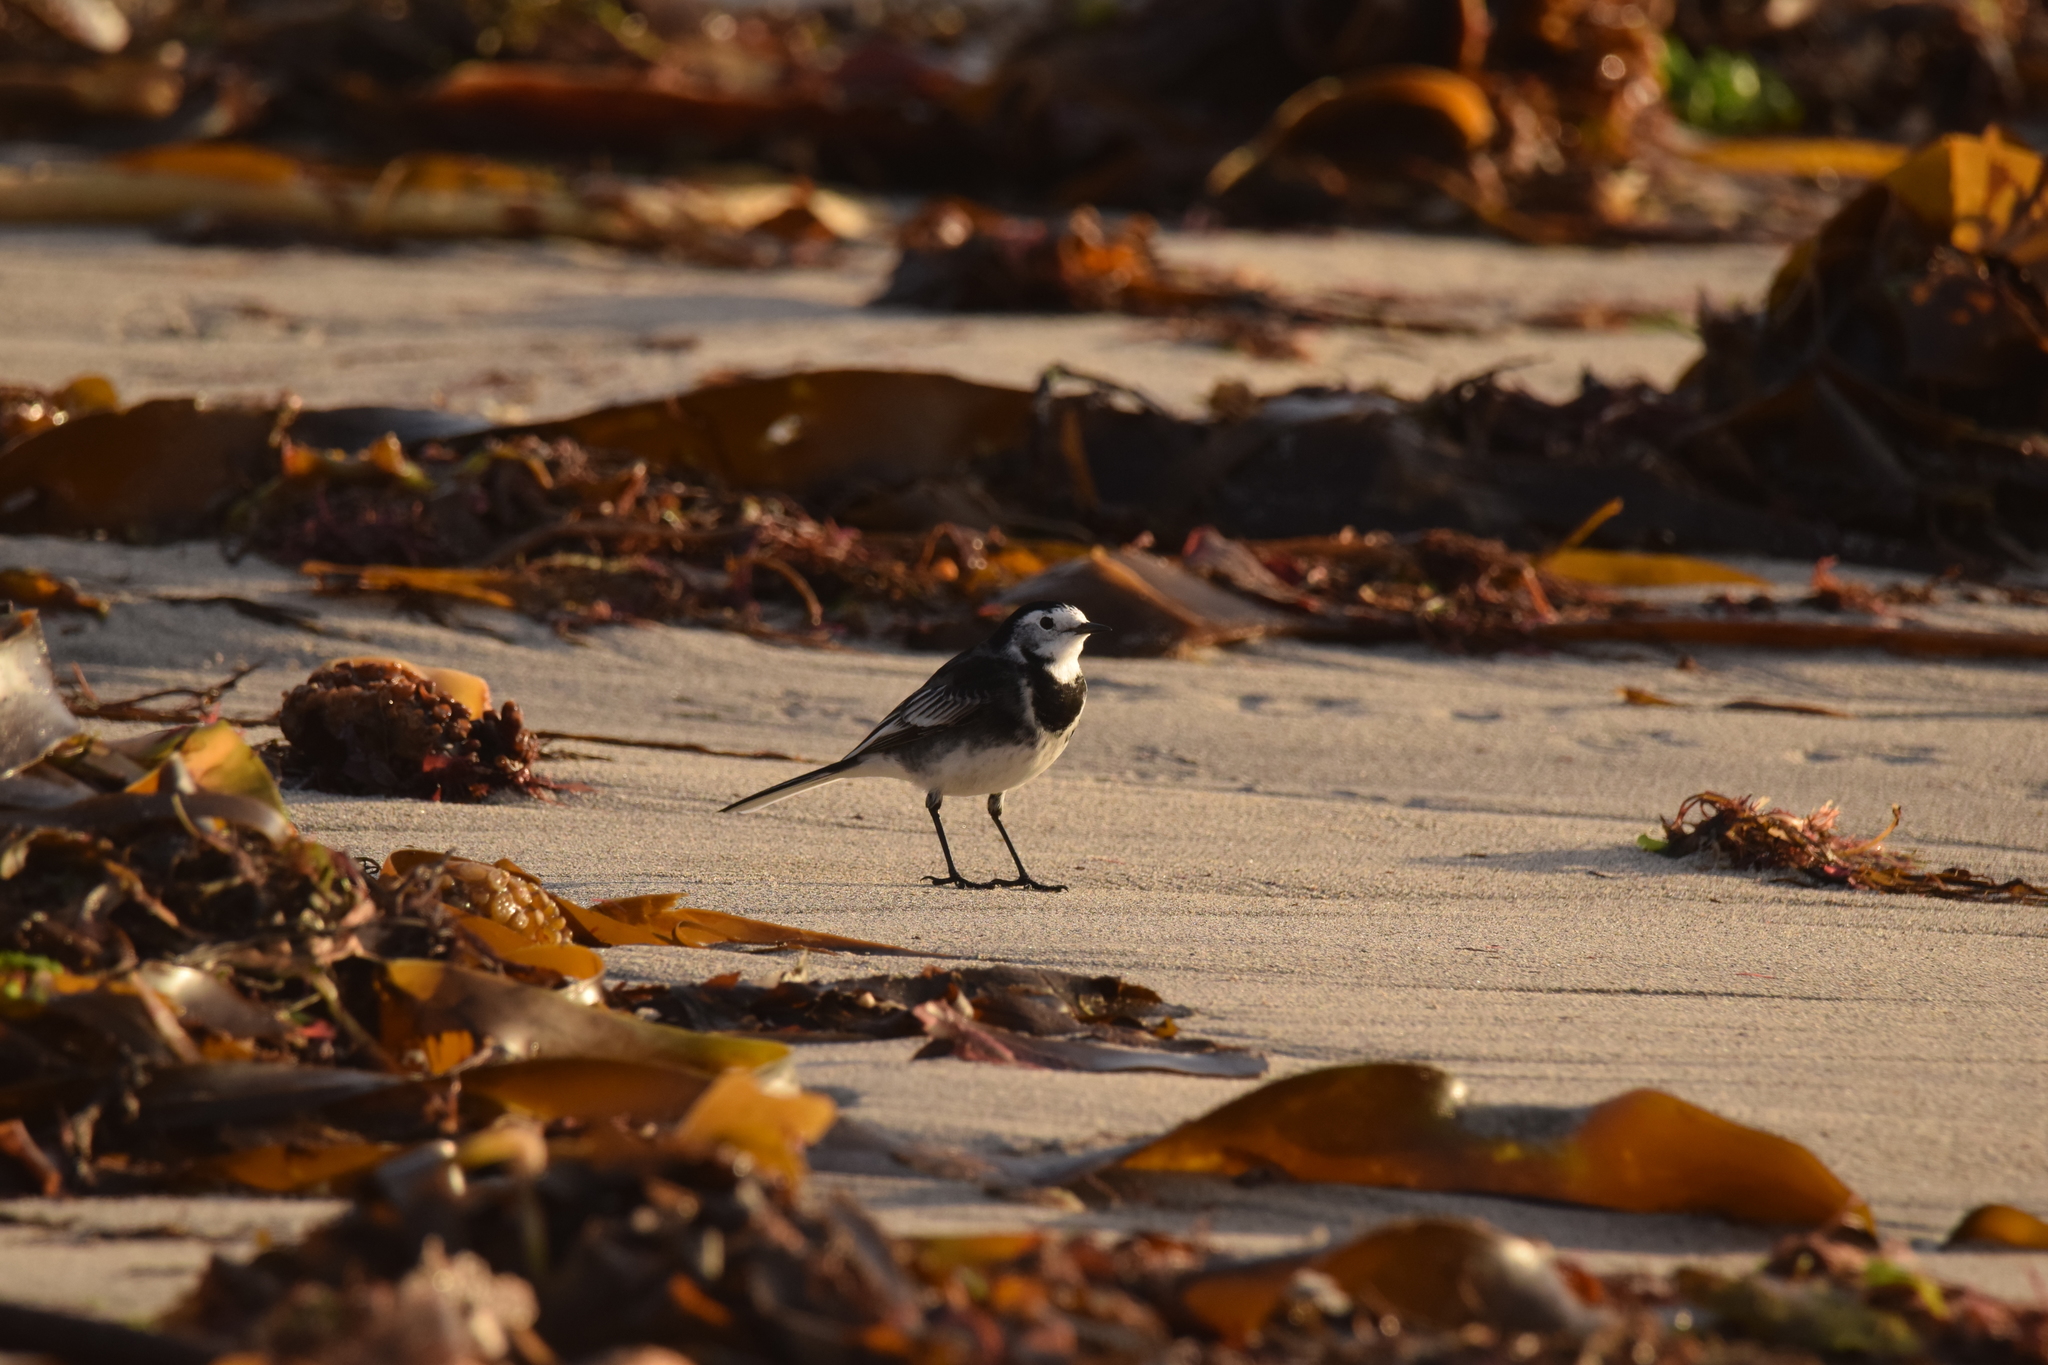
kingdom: Animalia
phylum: Chordata
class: Aves
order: Passeriformes
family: Motacillidae
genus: Motacilla
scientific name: Motacilla alba
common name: White wagtail
